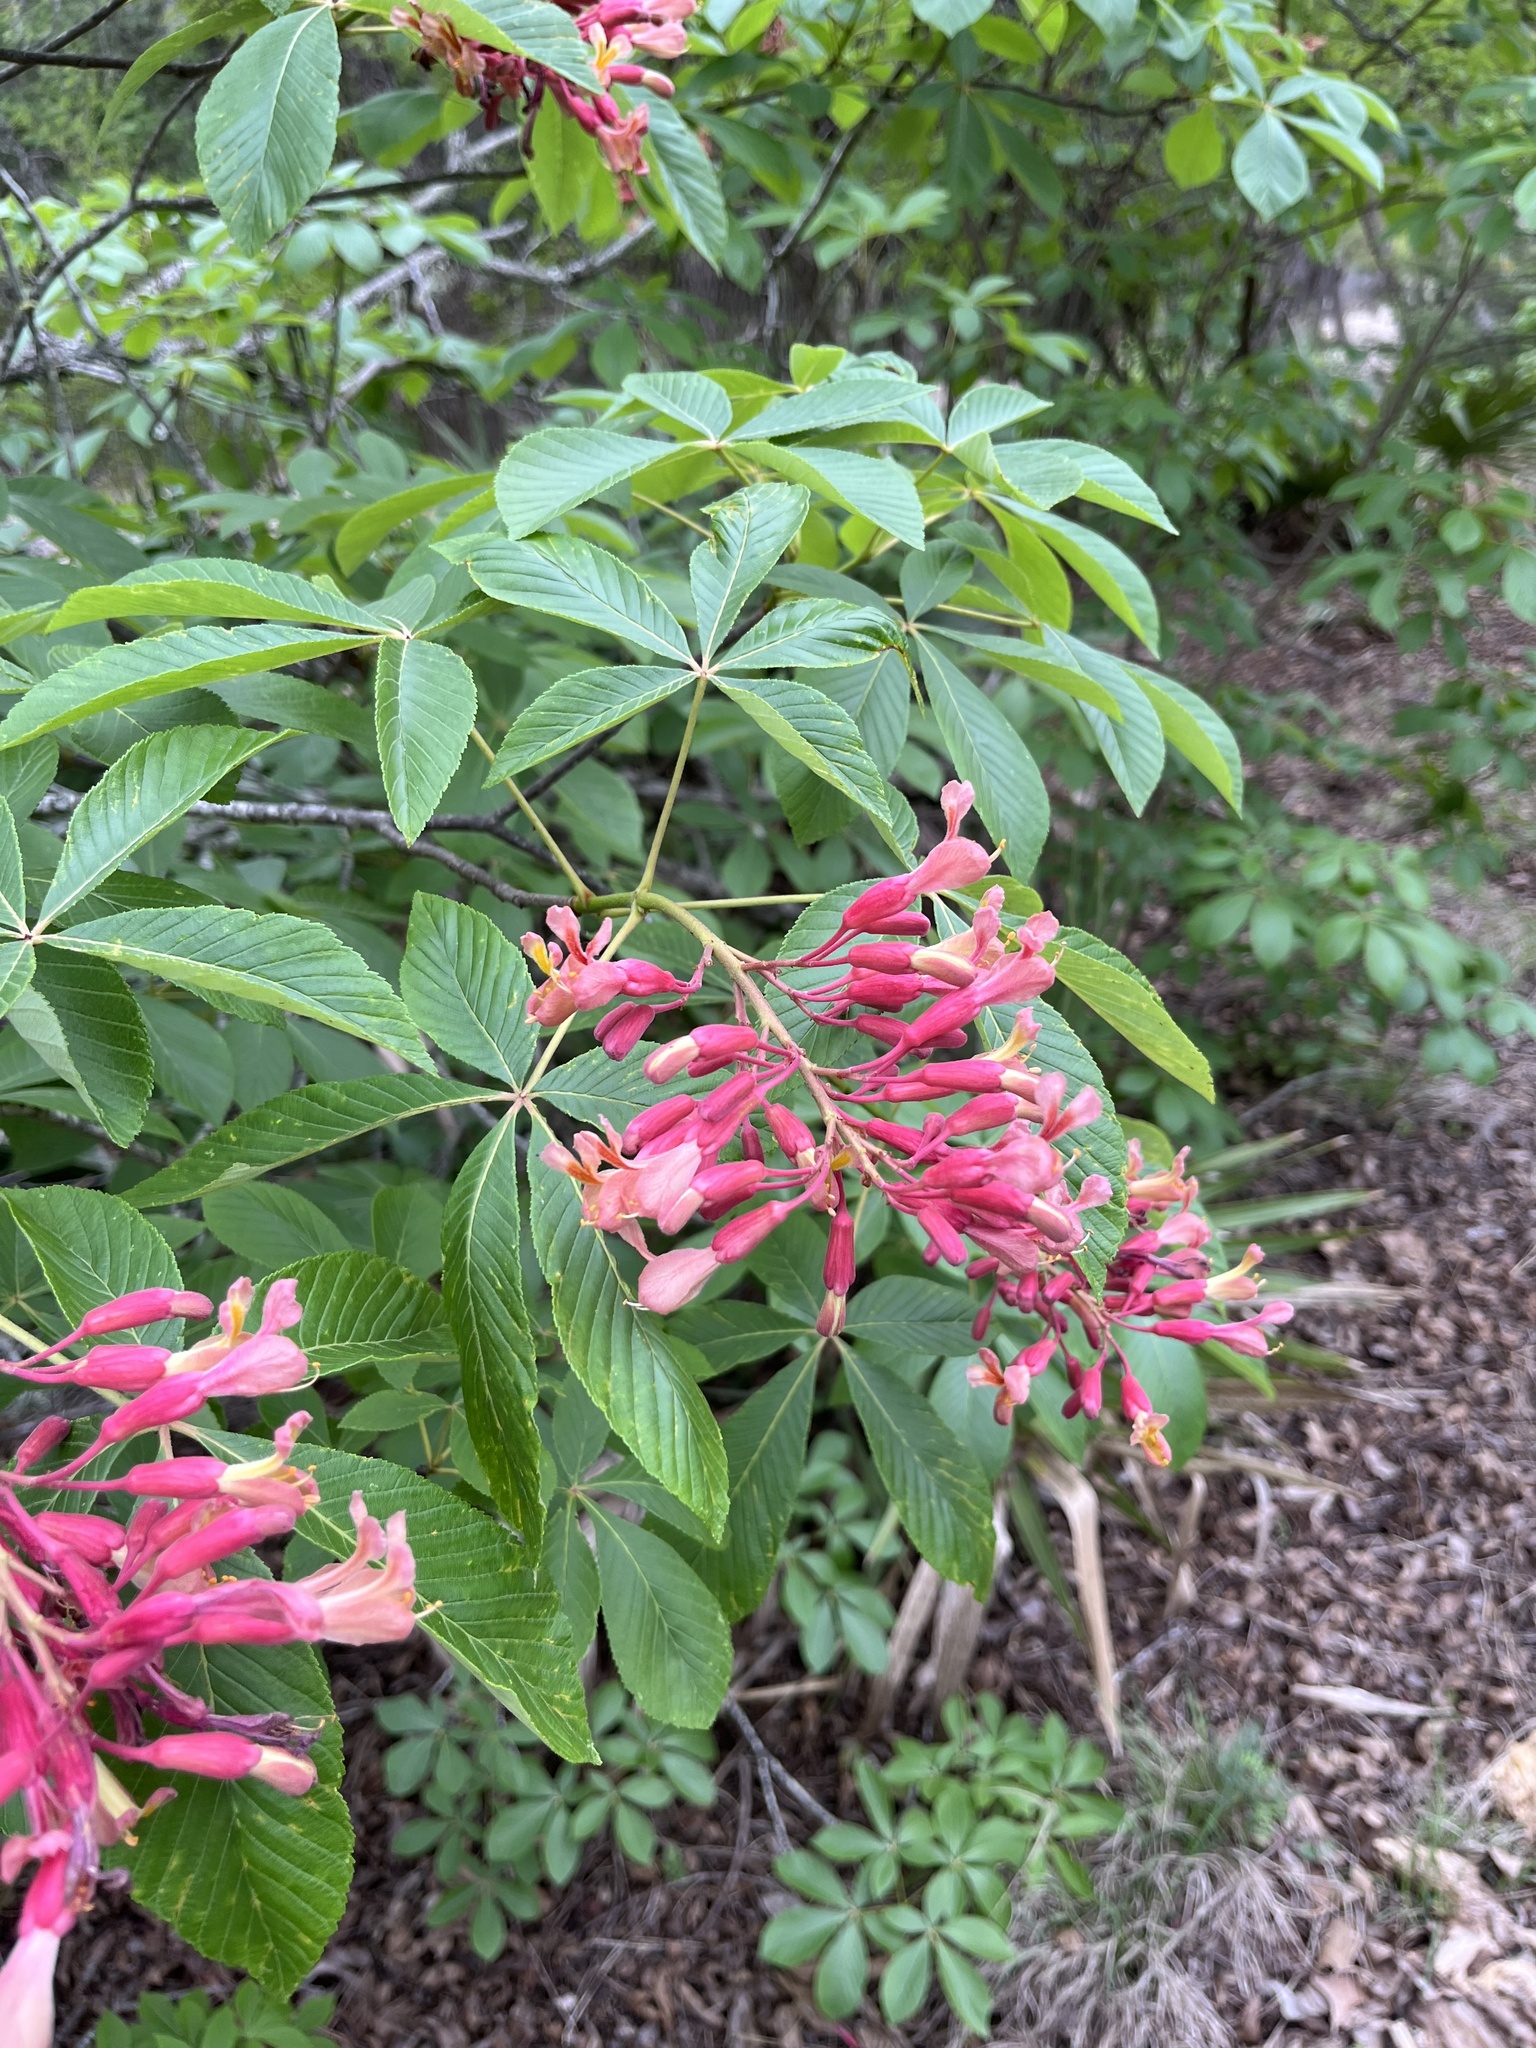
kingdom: Plantae
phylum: Tracheophyta
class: Magnoliopsida
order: Sapindales
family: Sapindaceae
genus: Aesculus
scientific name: Aesculus pavia
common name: Red buckeye
